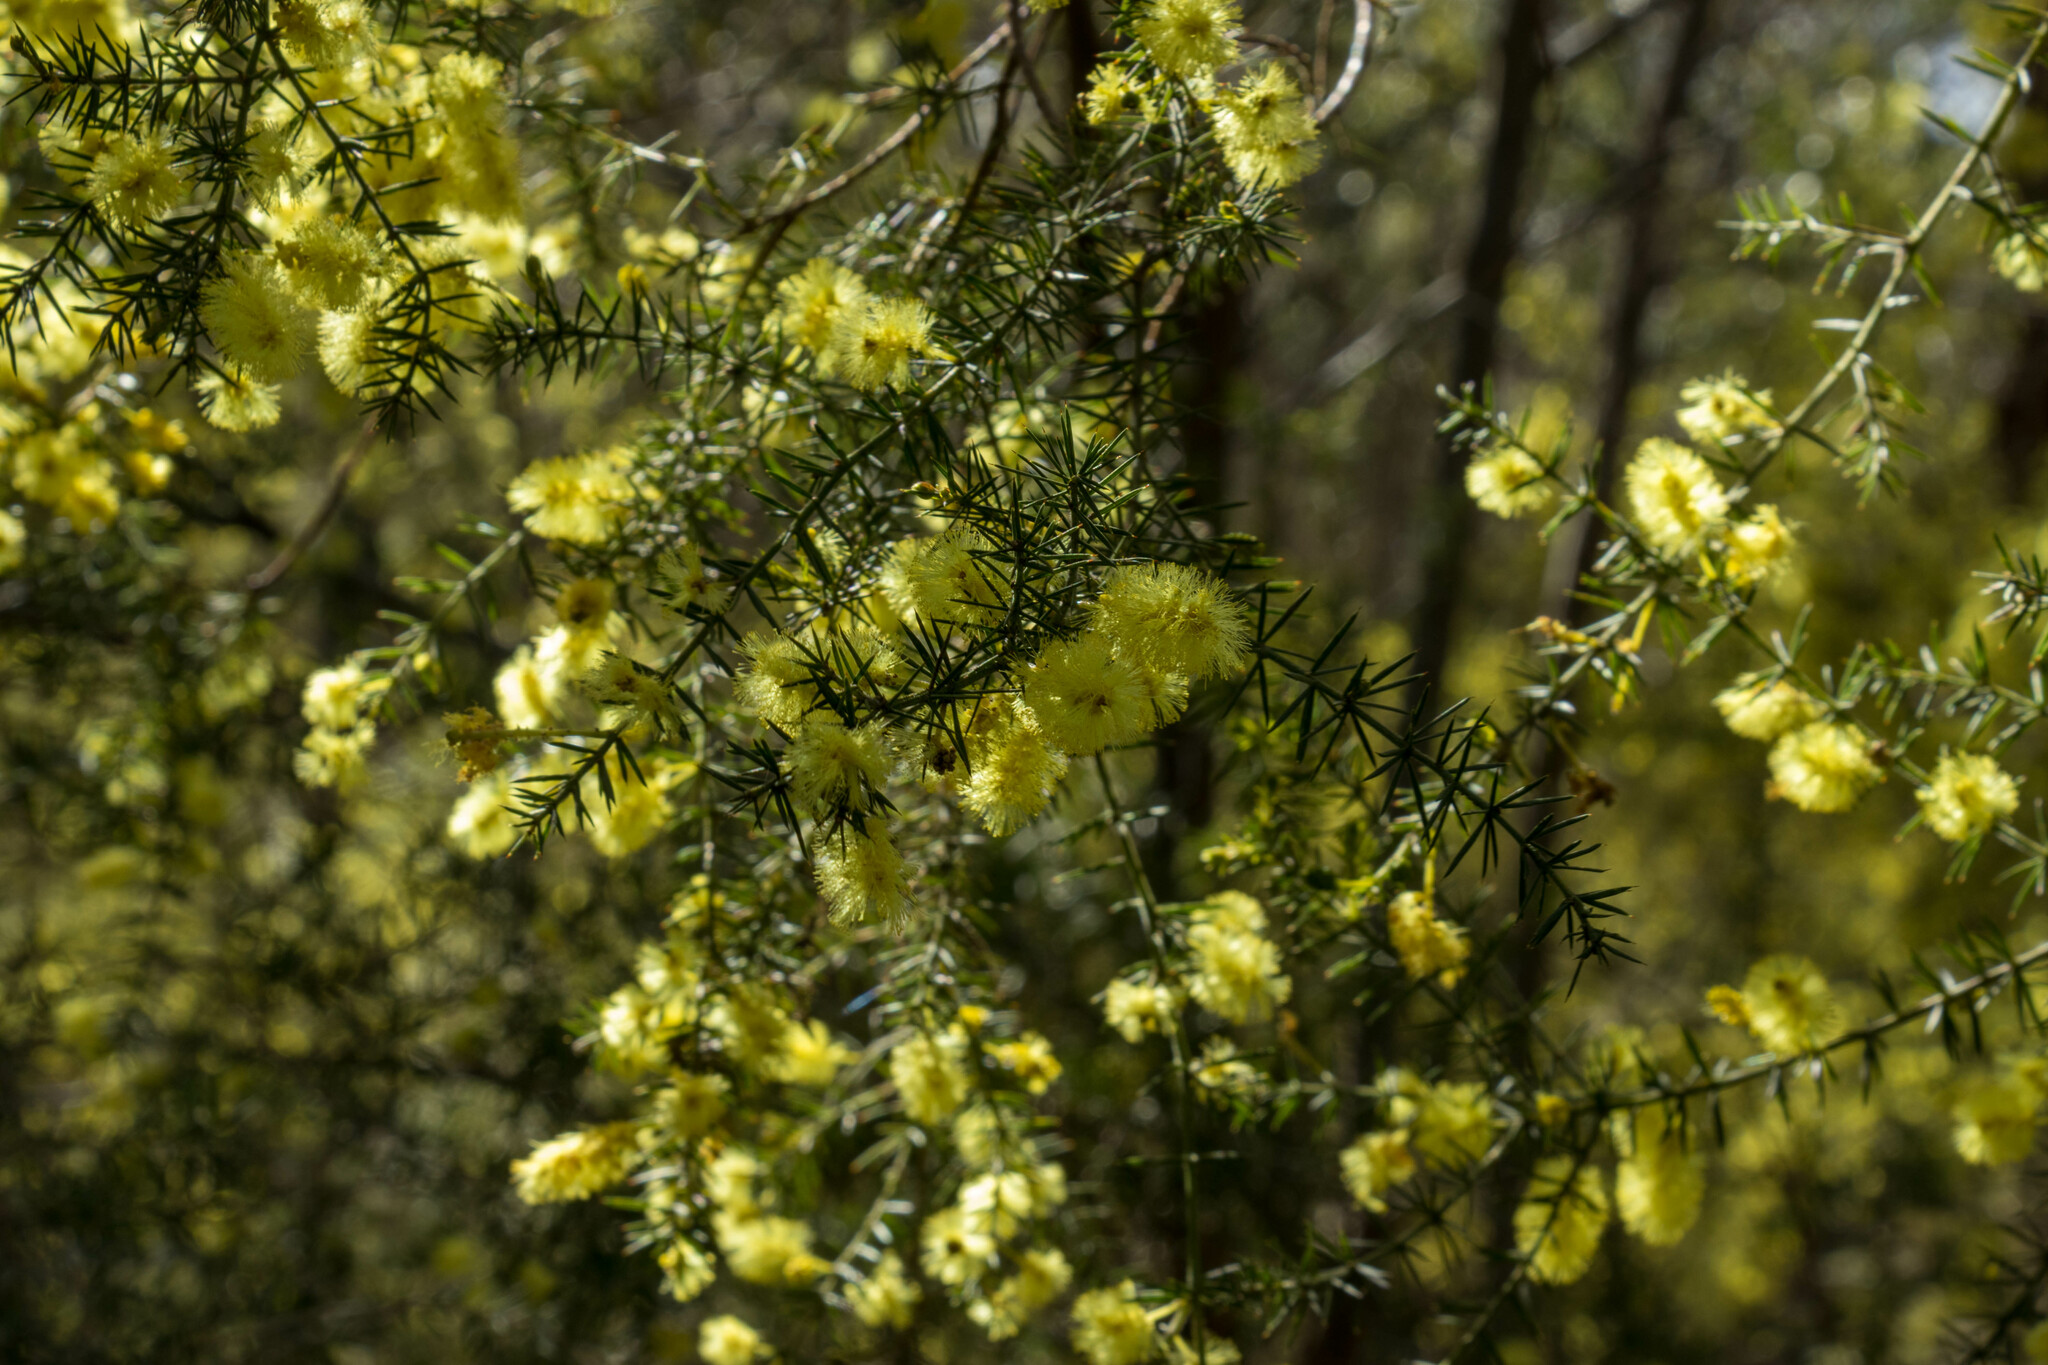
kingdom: Plantae
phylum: Tracheophyta
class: Magnoliopsida
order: Fabales
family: Fabaceae
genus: Acacia
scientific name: Acacia verticillata
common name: Prickly moses
